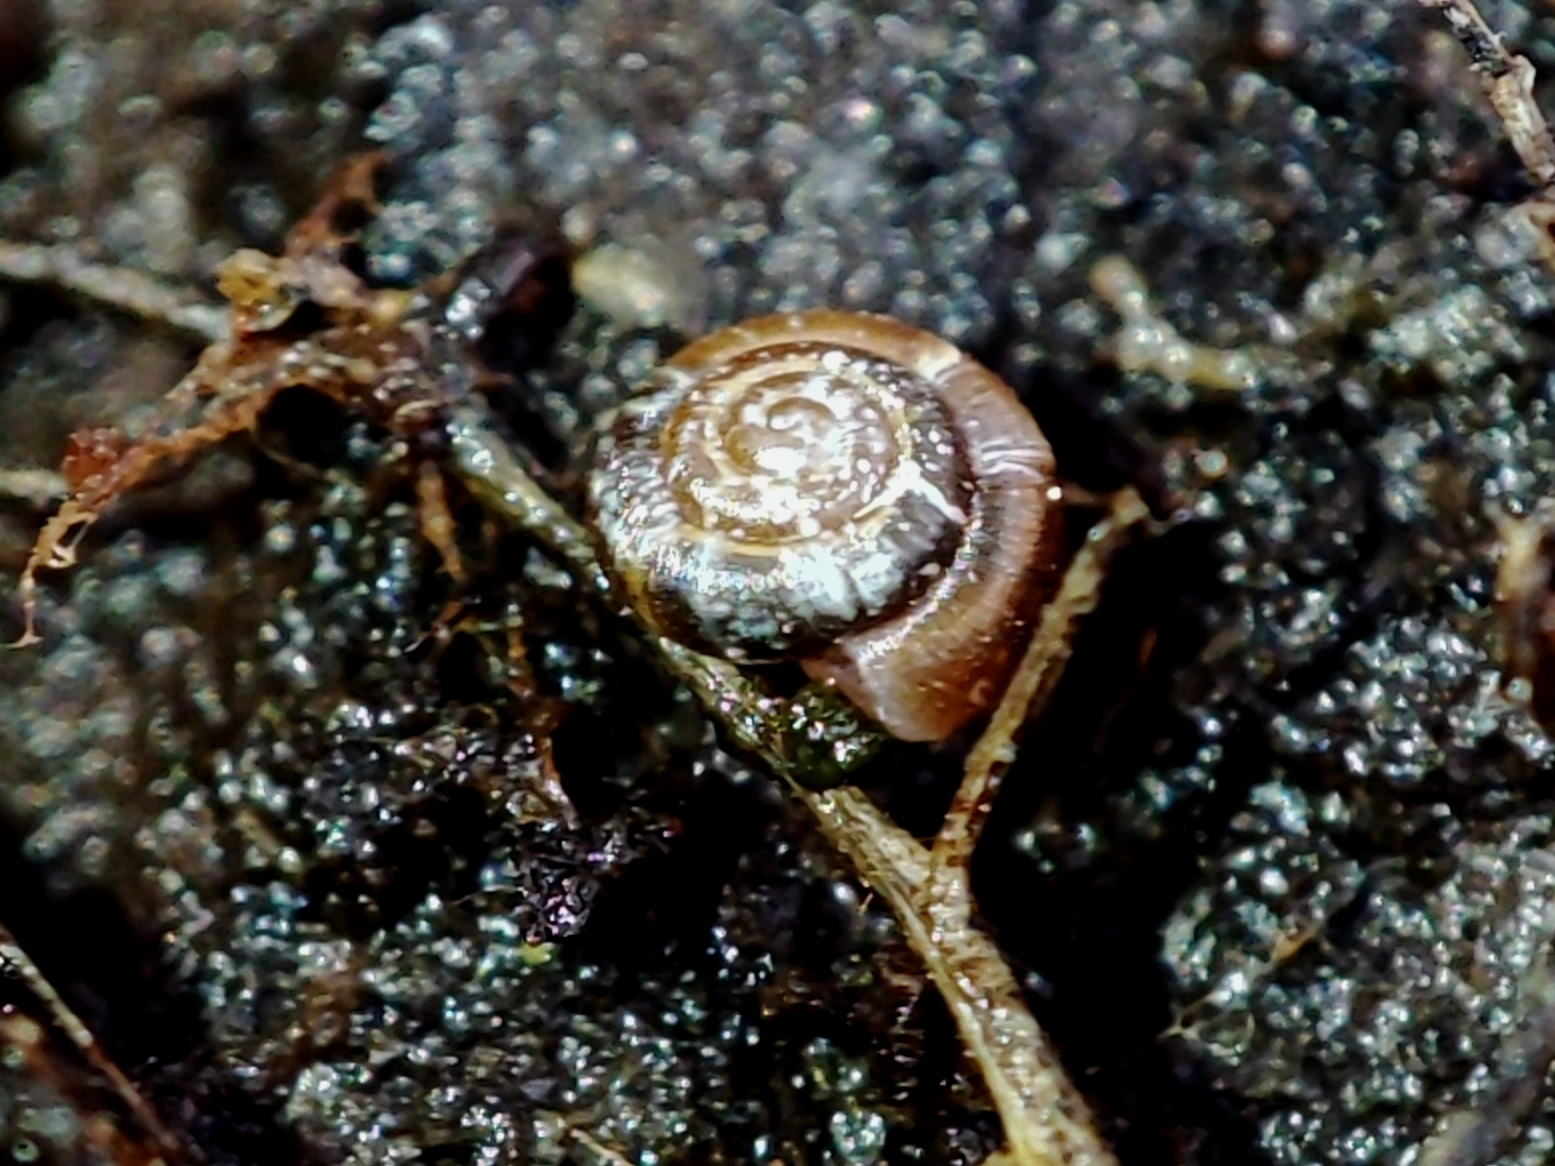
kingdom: Animalia
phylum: Mollusca
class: Gastropoda
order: Stylommatophora
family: Punctidae
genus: Punctum
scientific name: Punctum pygmaeum
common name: Dwarf snail
